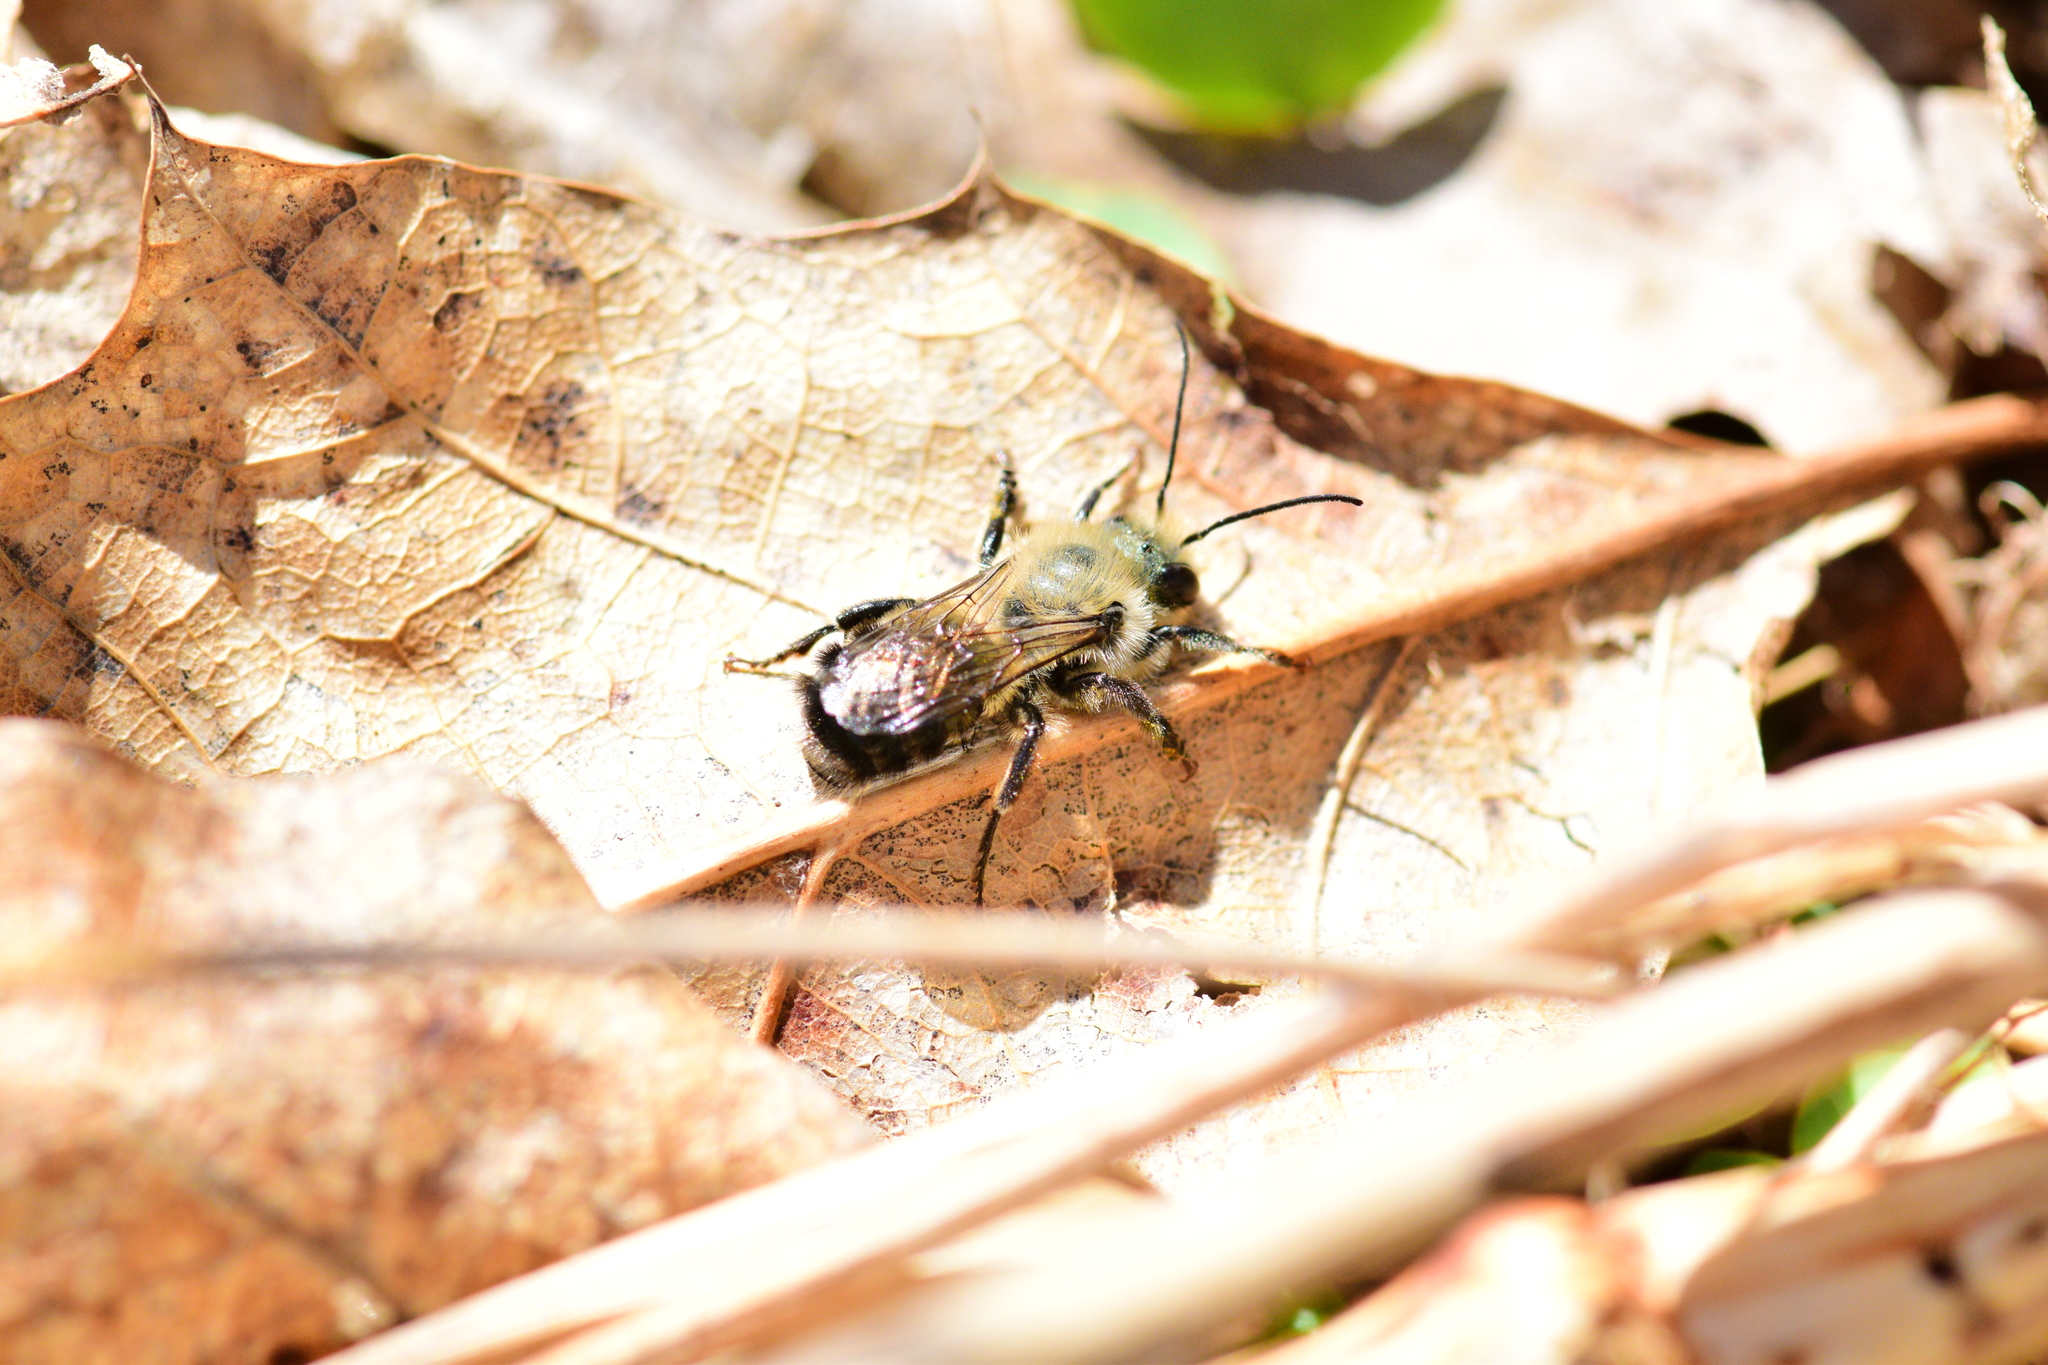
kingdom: Animalia
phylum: Arthropoda
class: Insecta
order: Hymenoptera
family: Megachilidae
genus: Osmia
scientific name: Osmia bucephala
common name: Bufflehead mason bee
